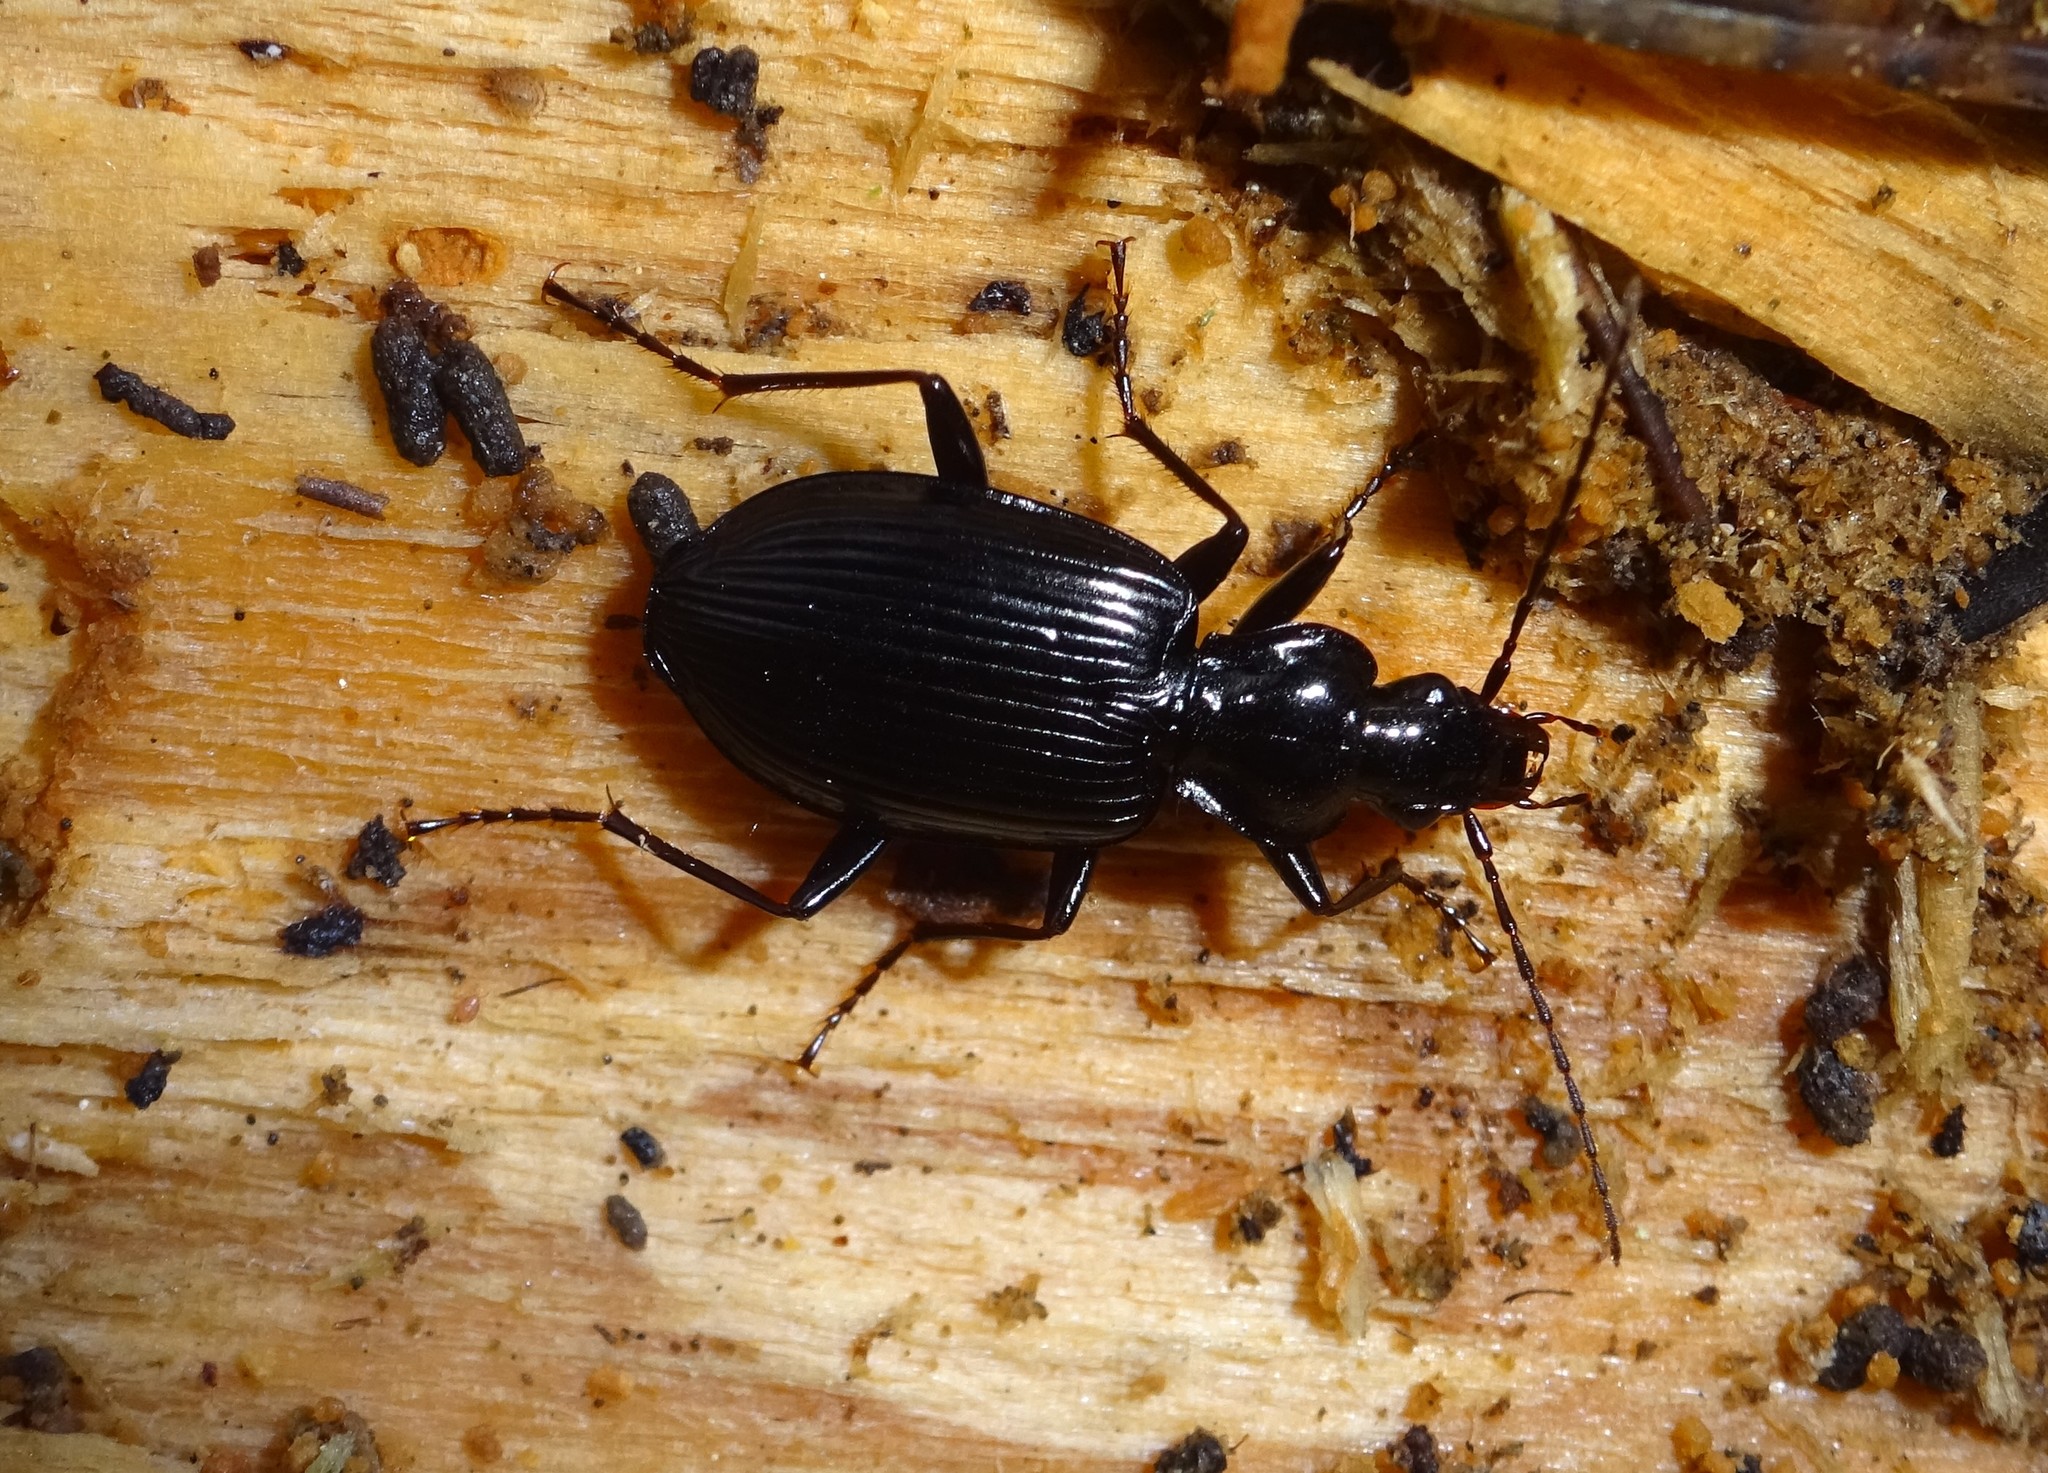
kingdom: Animalia
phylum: Arthropoda
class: Insecta
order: Coleoptera
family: Carabidae
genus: Platynus
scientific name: Platynus assimilis
